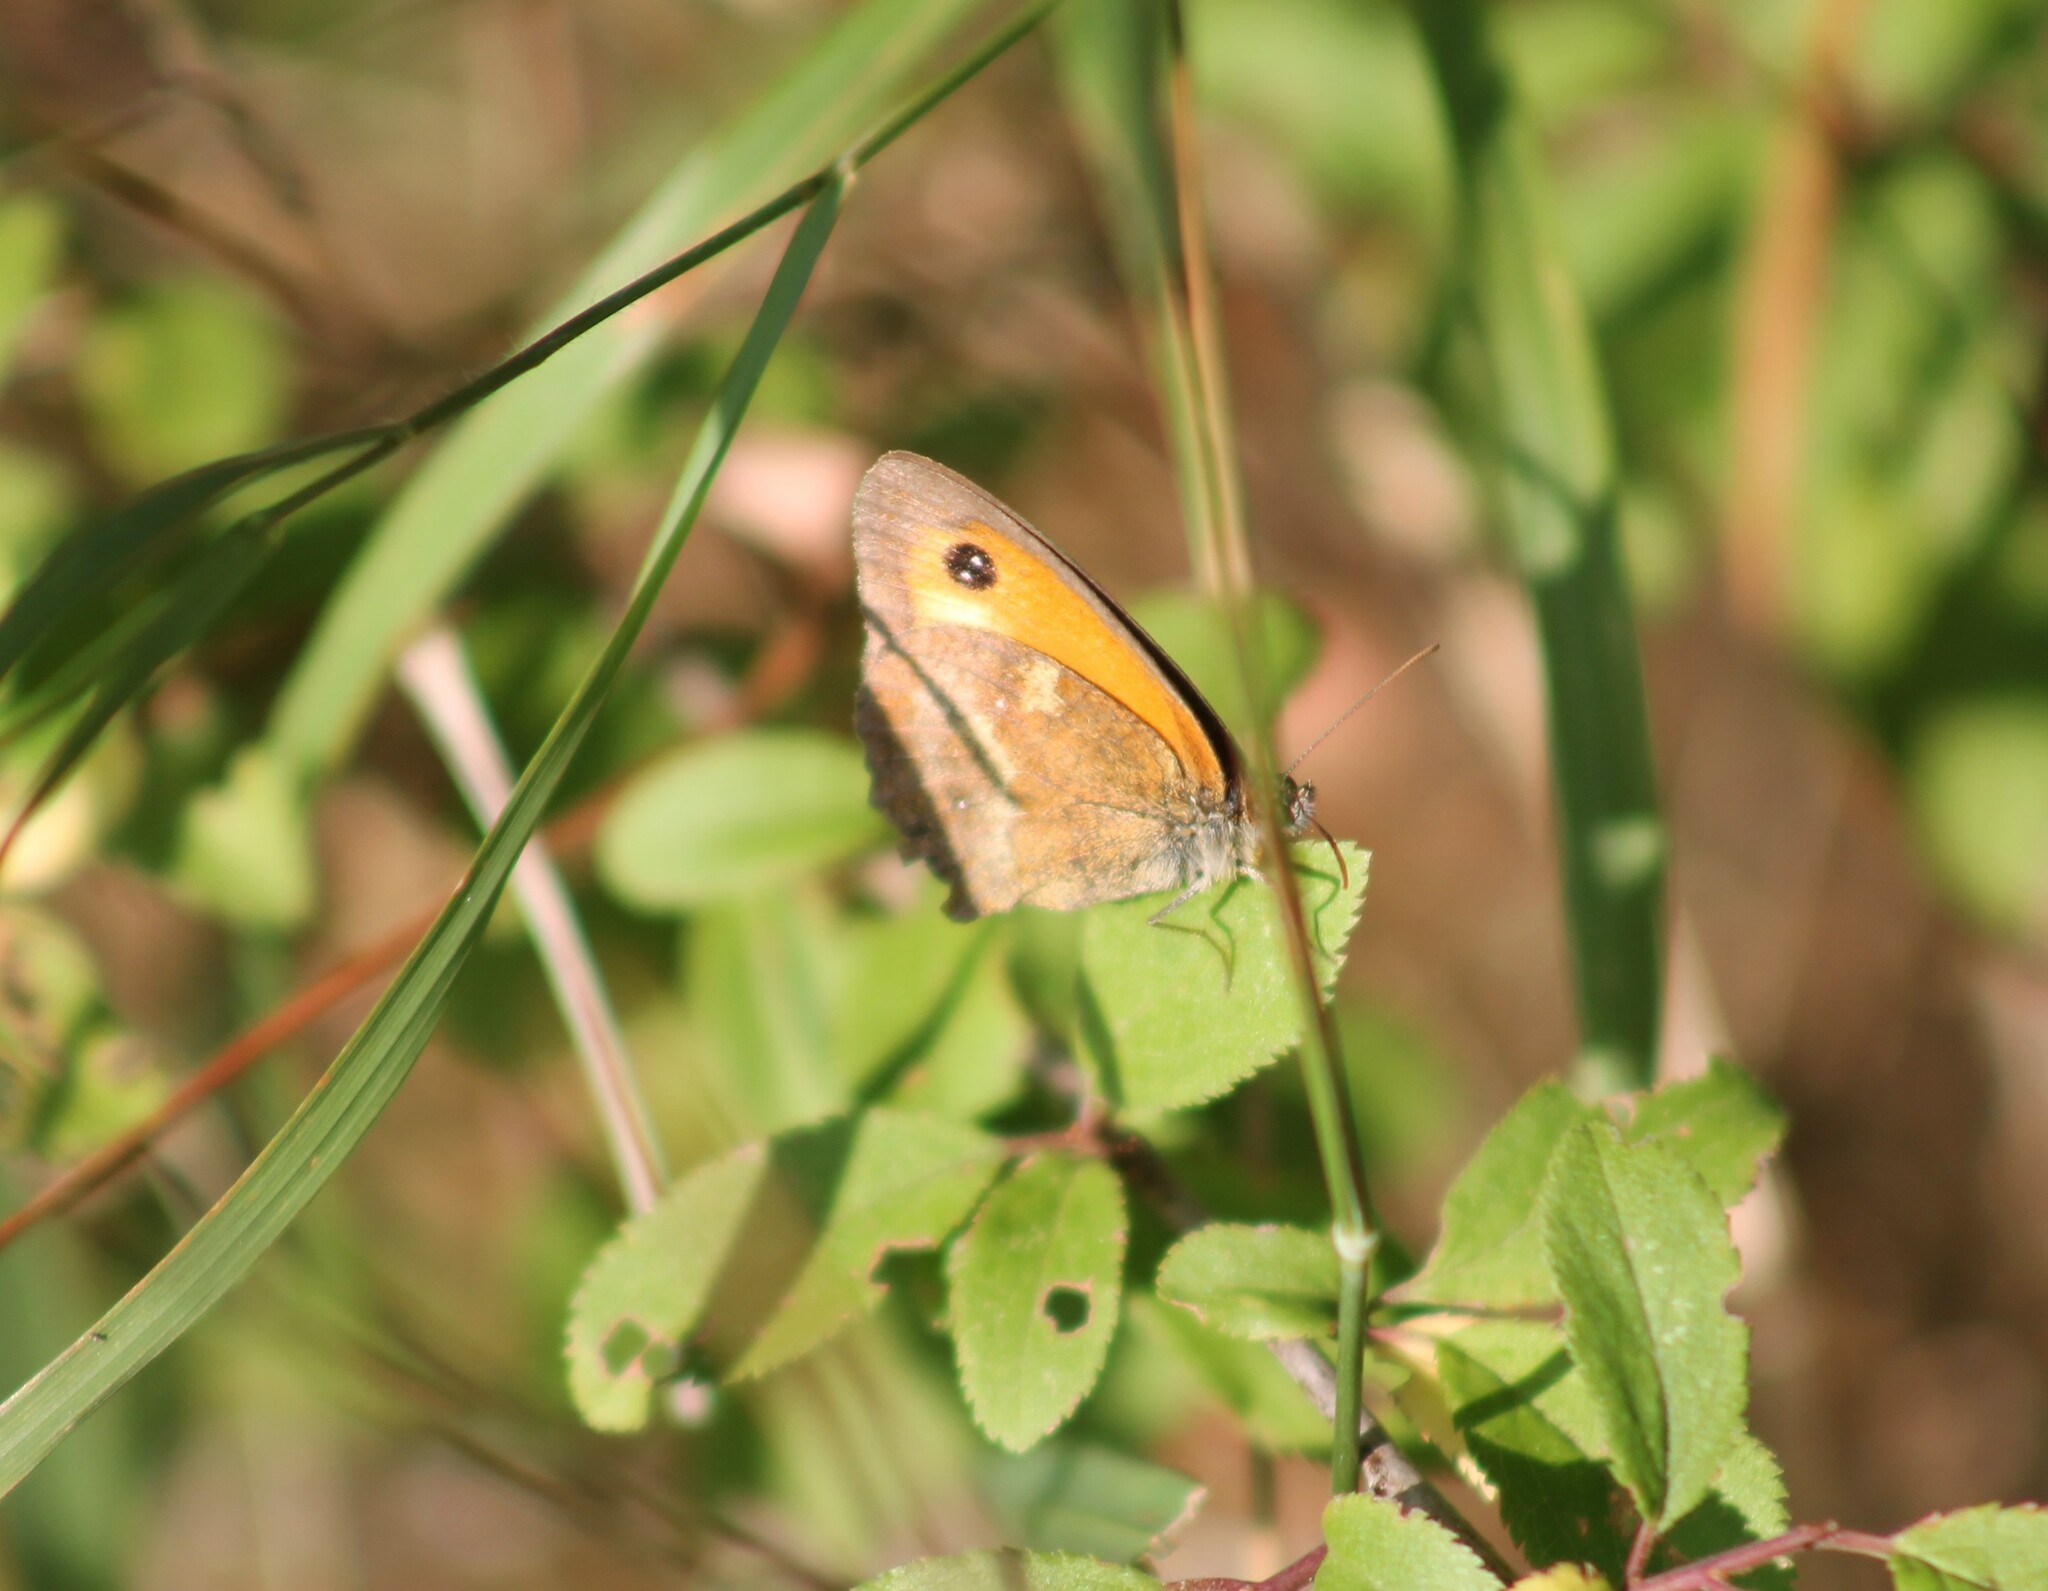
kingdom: Animalia
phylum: Arthropoda
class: Insecta
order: Lepidoptera
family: Nymphalidae
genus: Pyronia
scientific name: Pyronia tithonus
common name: Gatekeeper
